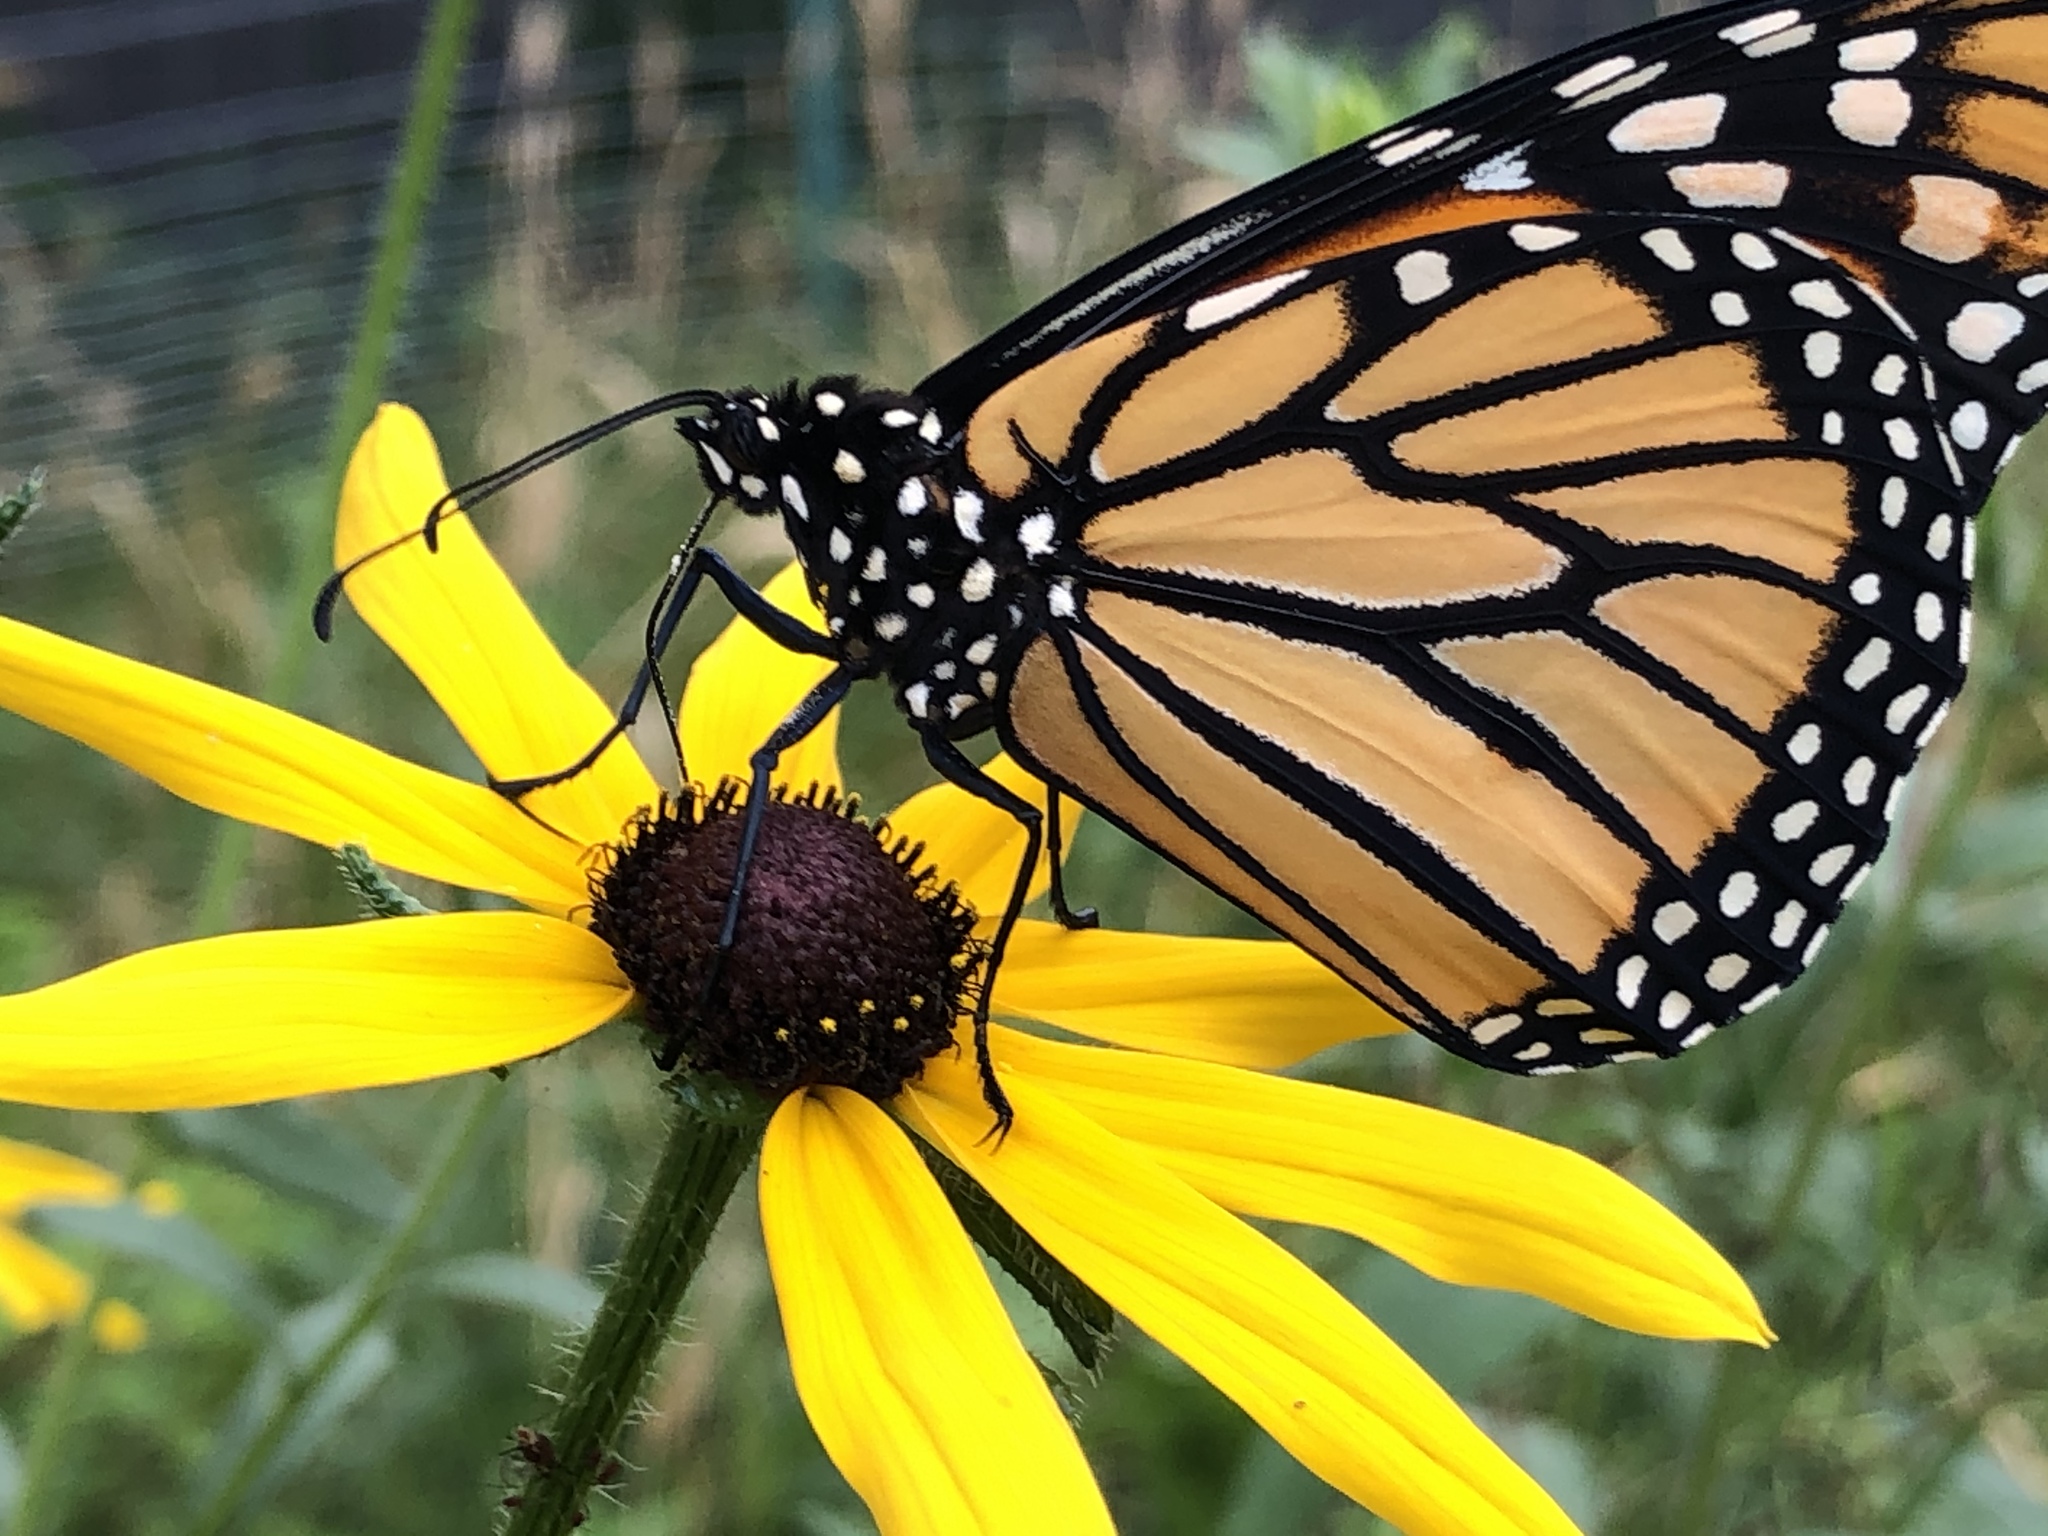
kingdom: Animalia
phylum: Arthropoda
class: Insecta
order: Lepidoptera
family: Nymphalidae
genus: Danaus
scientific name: Danaus plexippus
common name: Monarch
